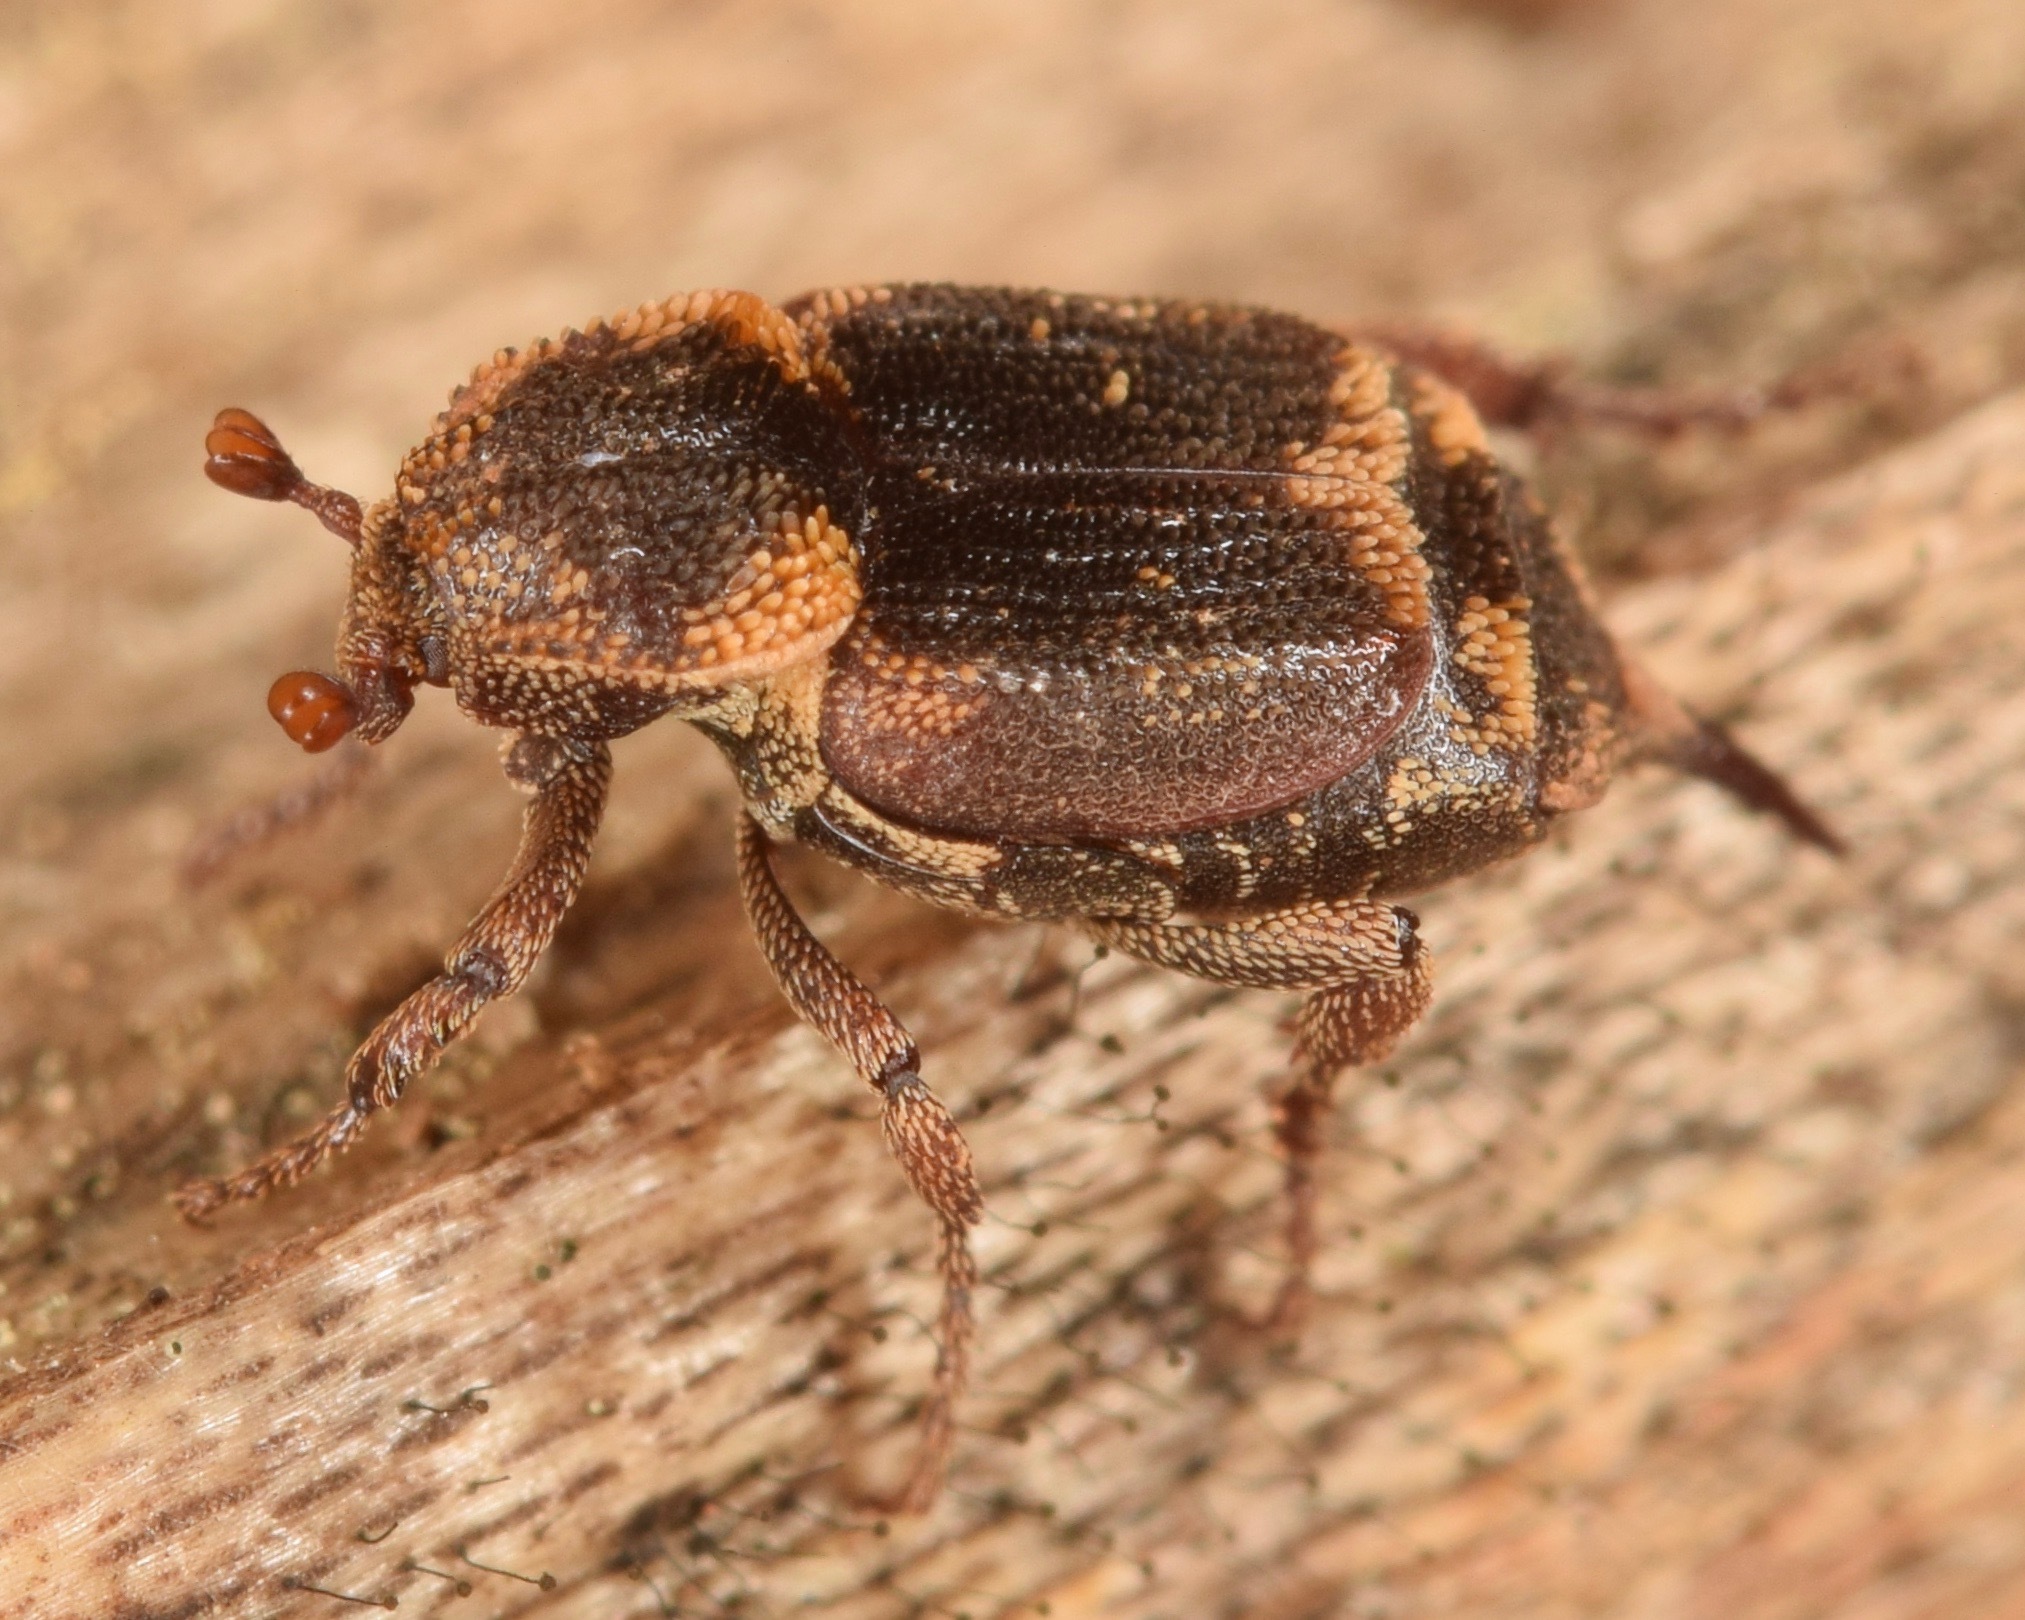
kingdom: Animalia
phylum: Arthropoda
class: Insecta
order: Coleoptera
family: Scarabaeidae
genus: Valgus
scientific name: Valgus canaliculatus
